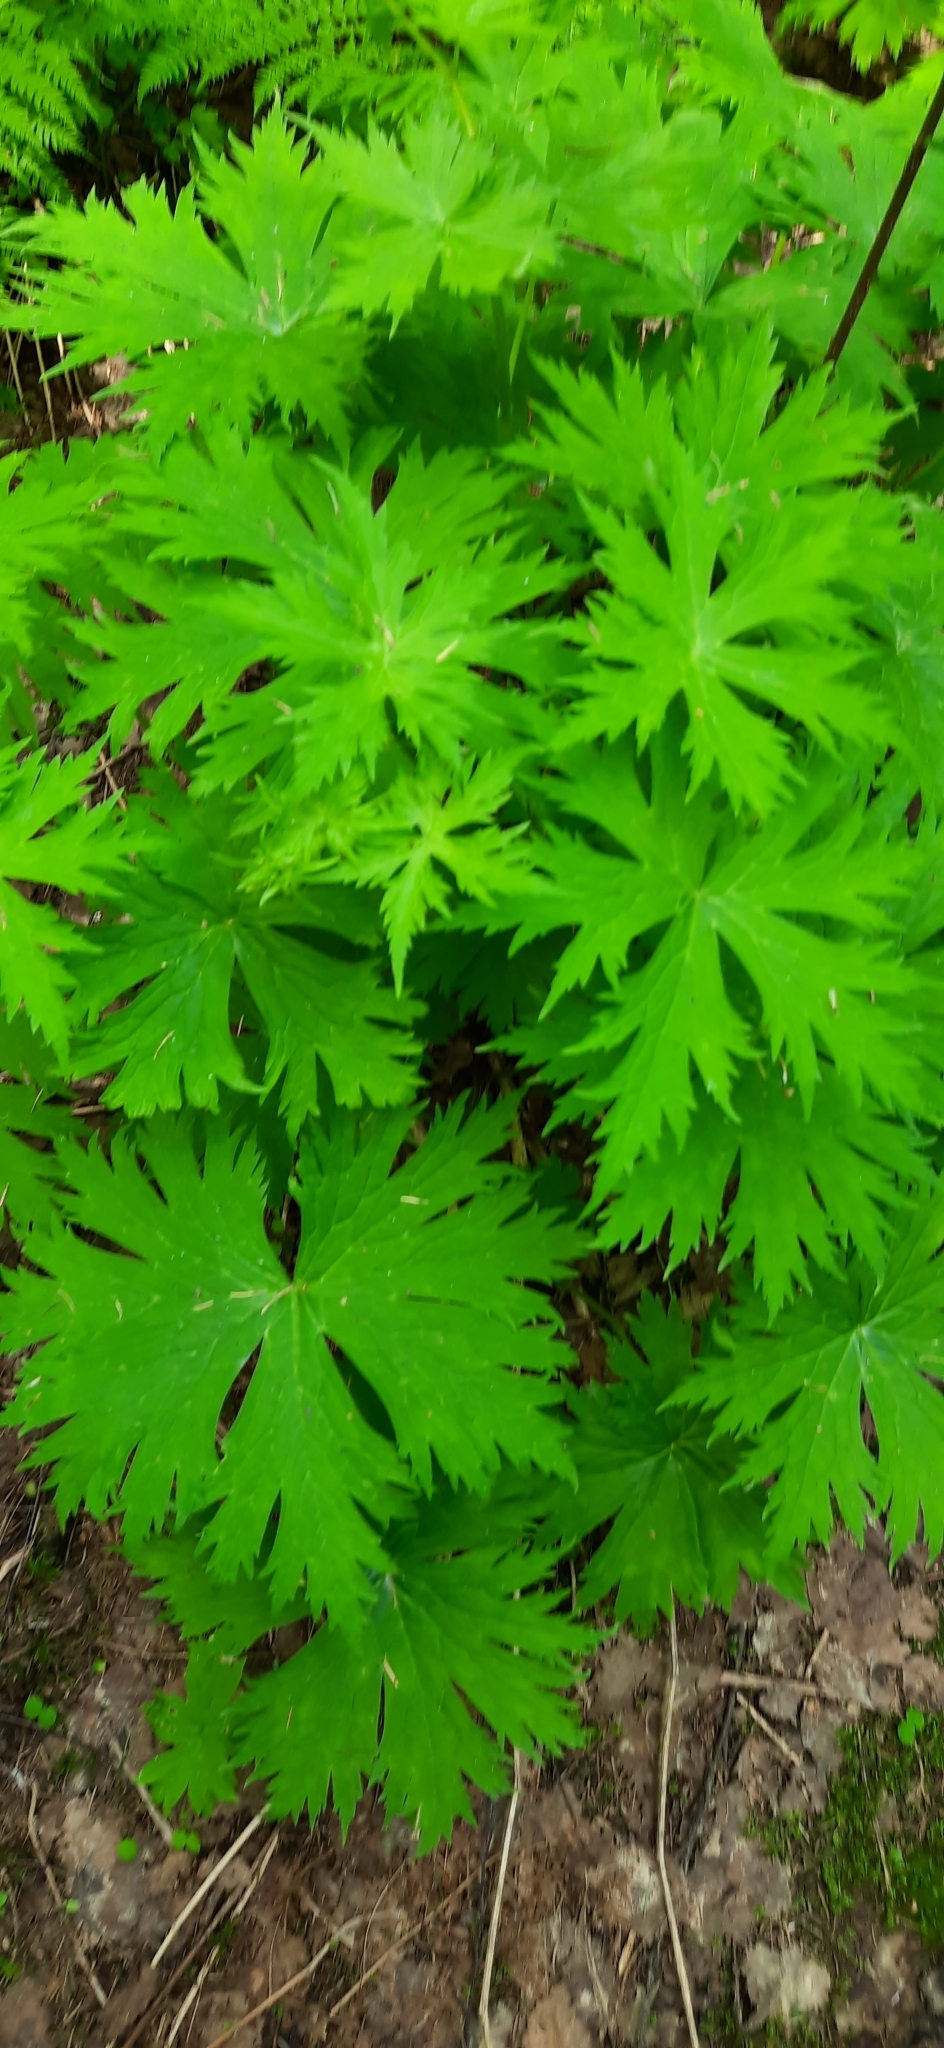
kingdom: Plantae
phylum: Tracheophyta
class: Magnoliopsida
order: Ranunculales
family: Ranunculaceae
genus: Aconitum
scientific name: Aconitum septentrionale
